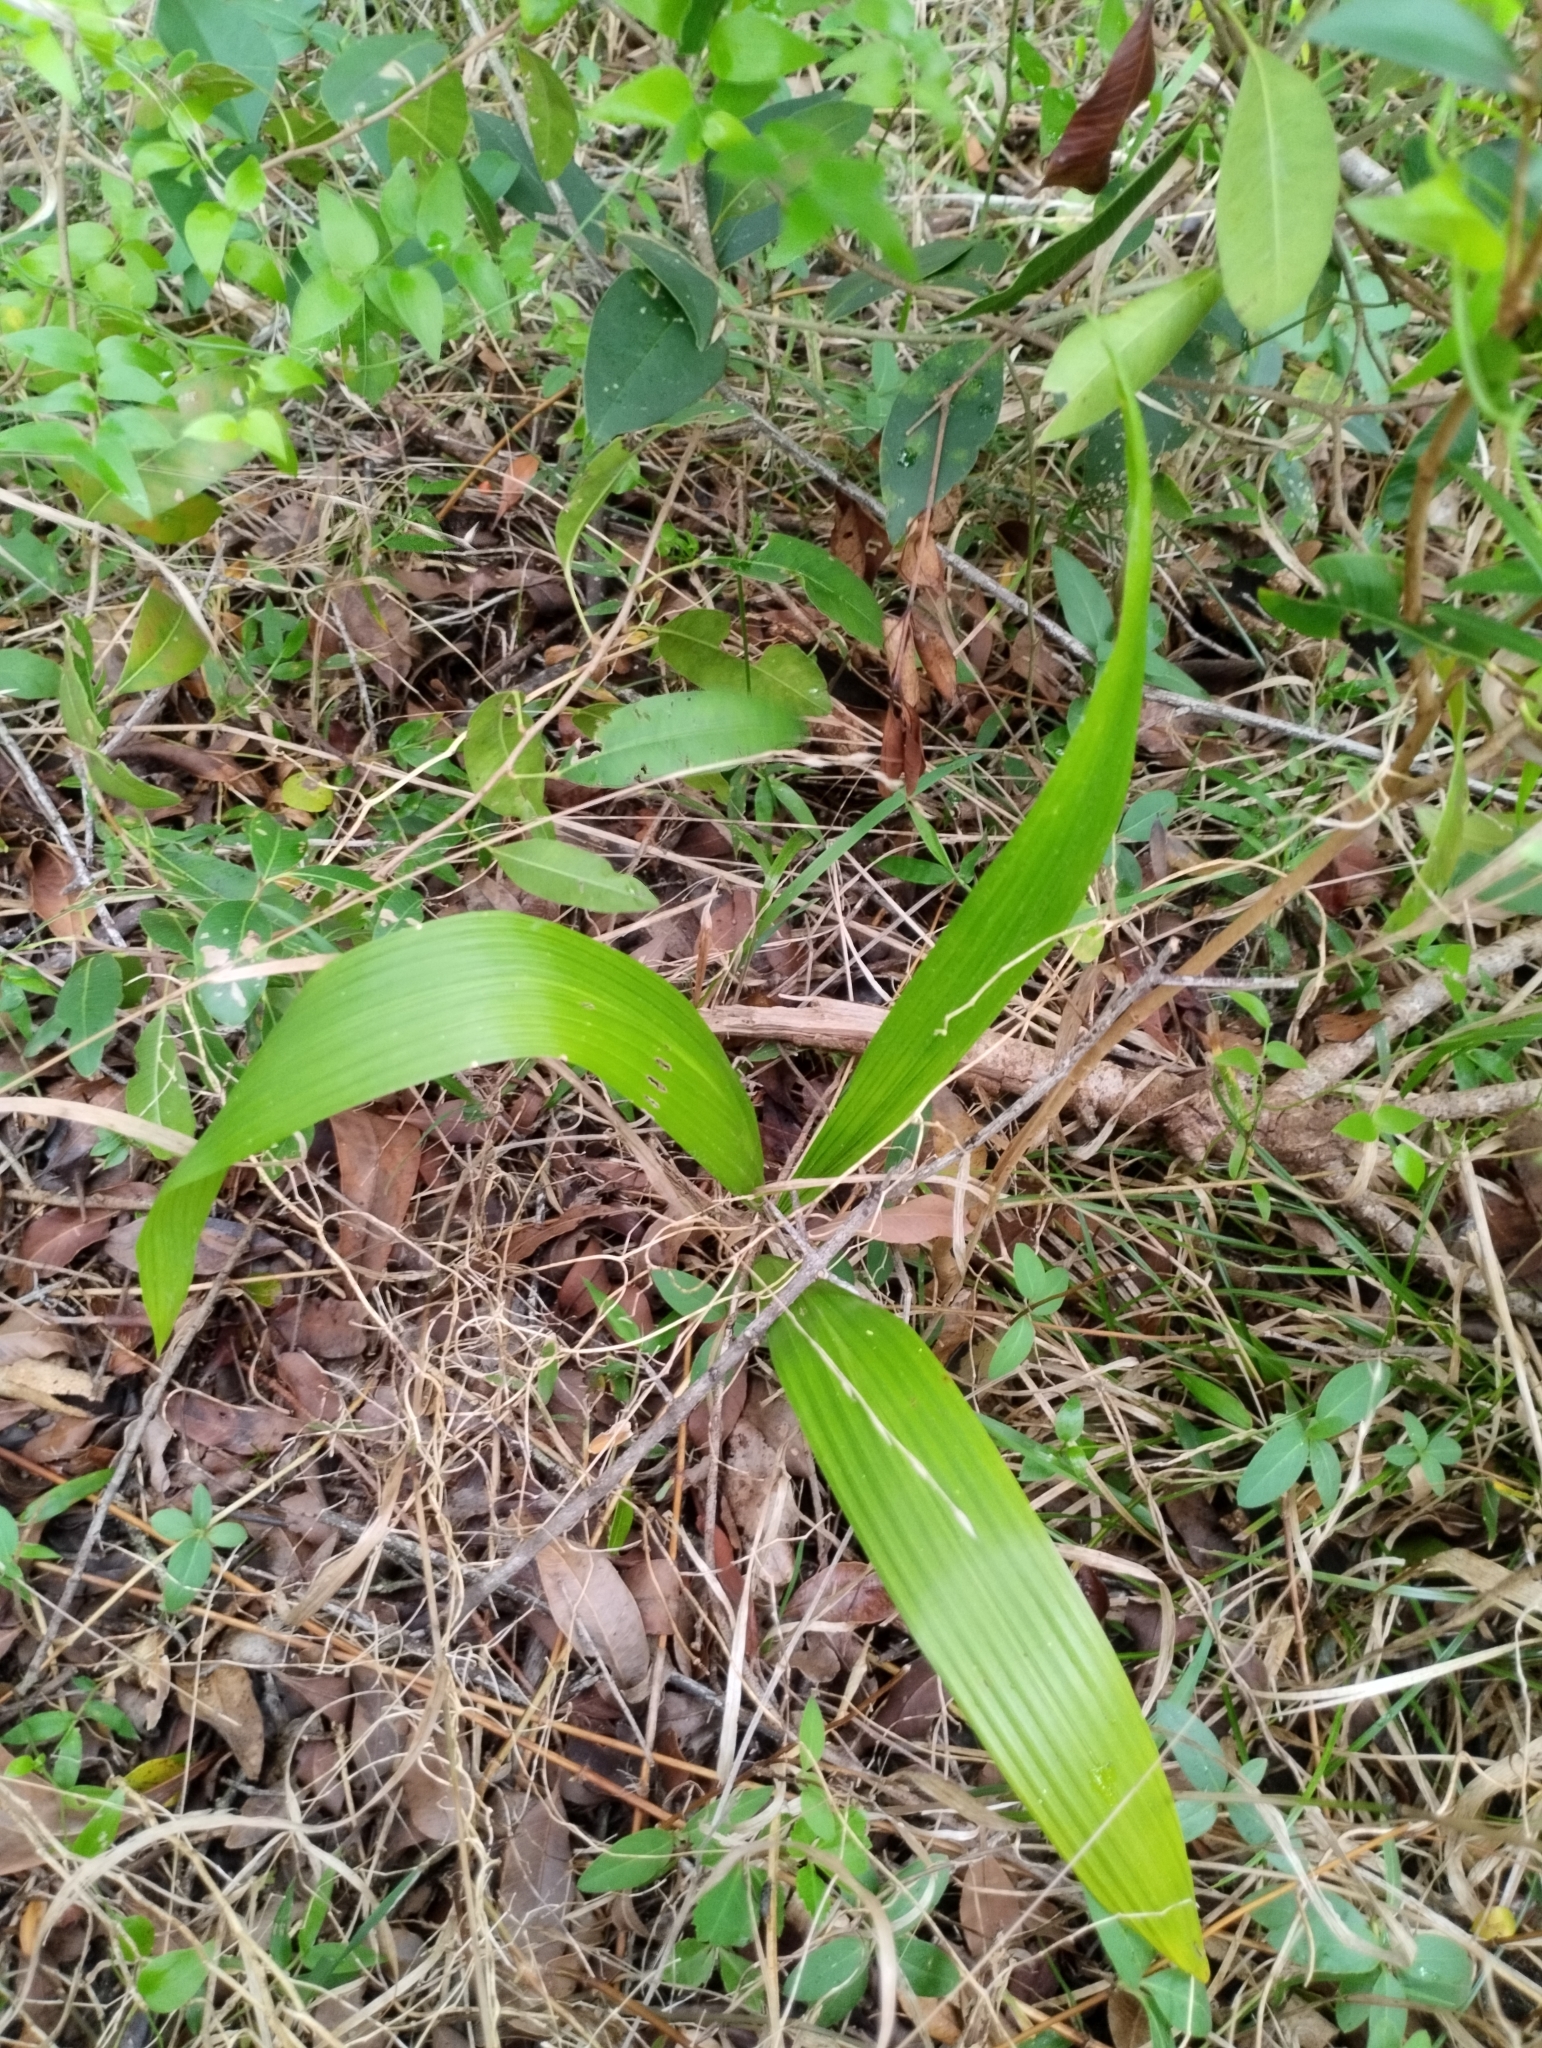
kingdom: Plantae
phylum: Tracheophyta
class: Liliopsida
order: Arecales
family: Arecaceae
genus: Syagrus
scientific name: Syagrus romanzoffiana
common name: Queen palm
